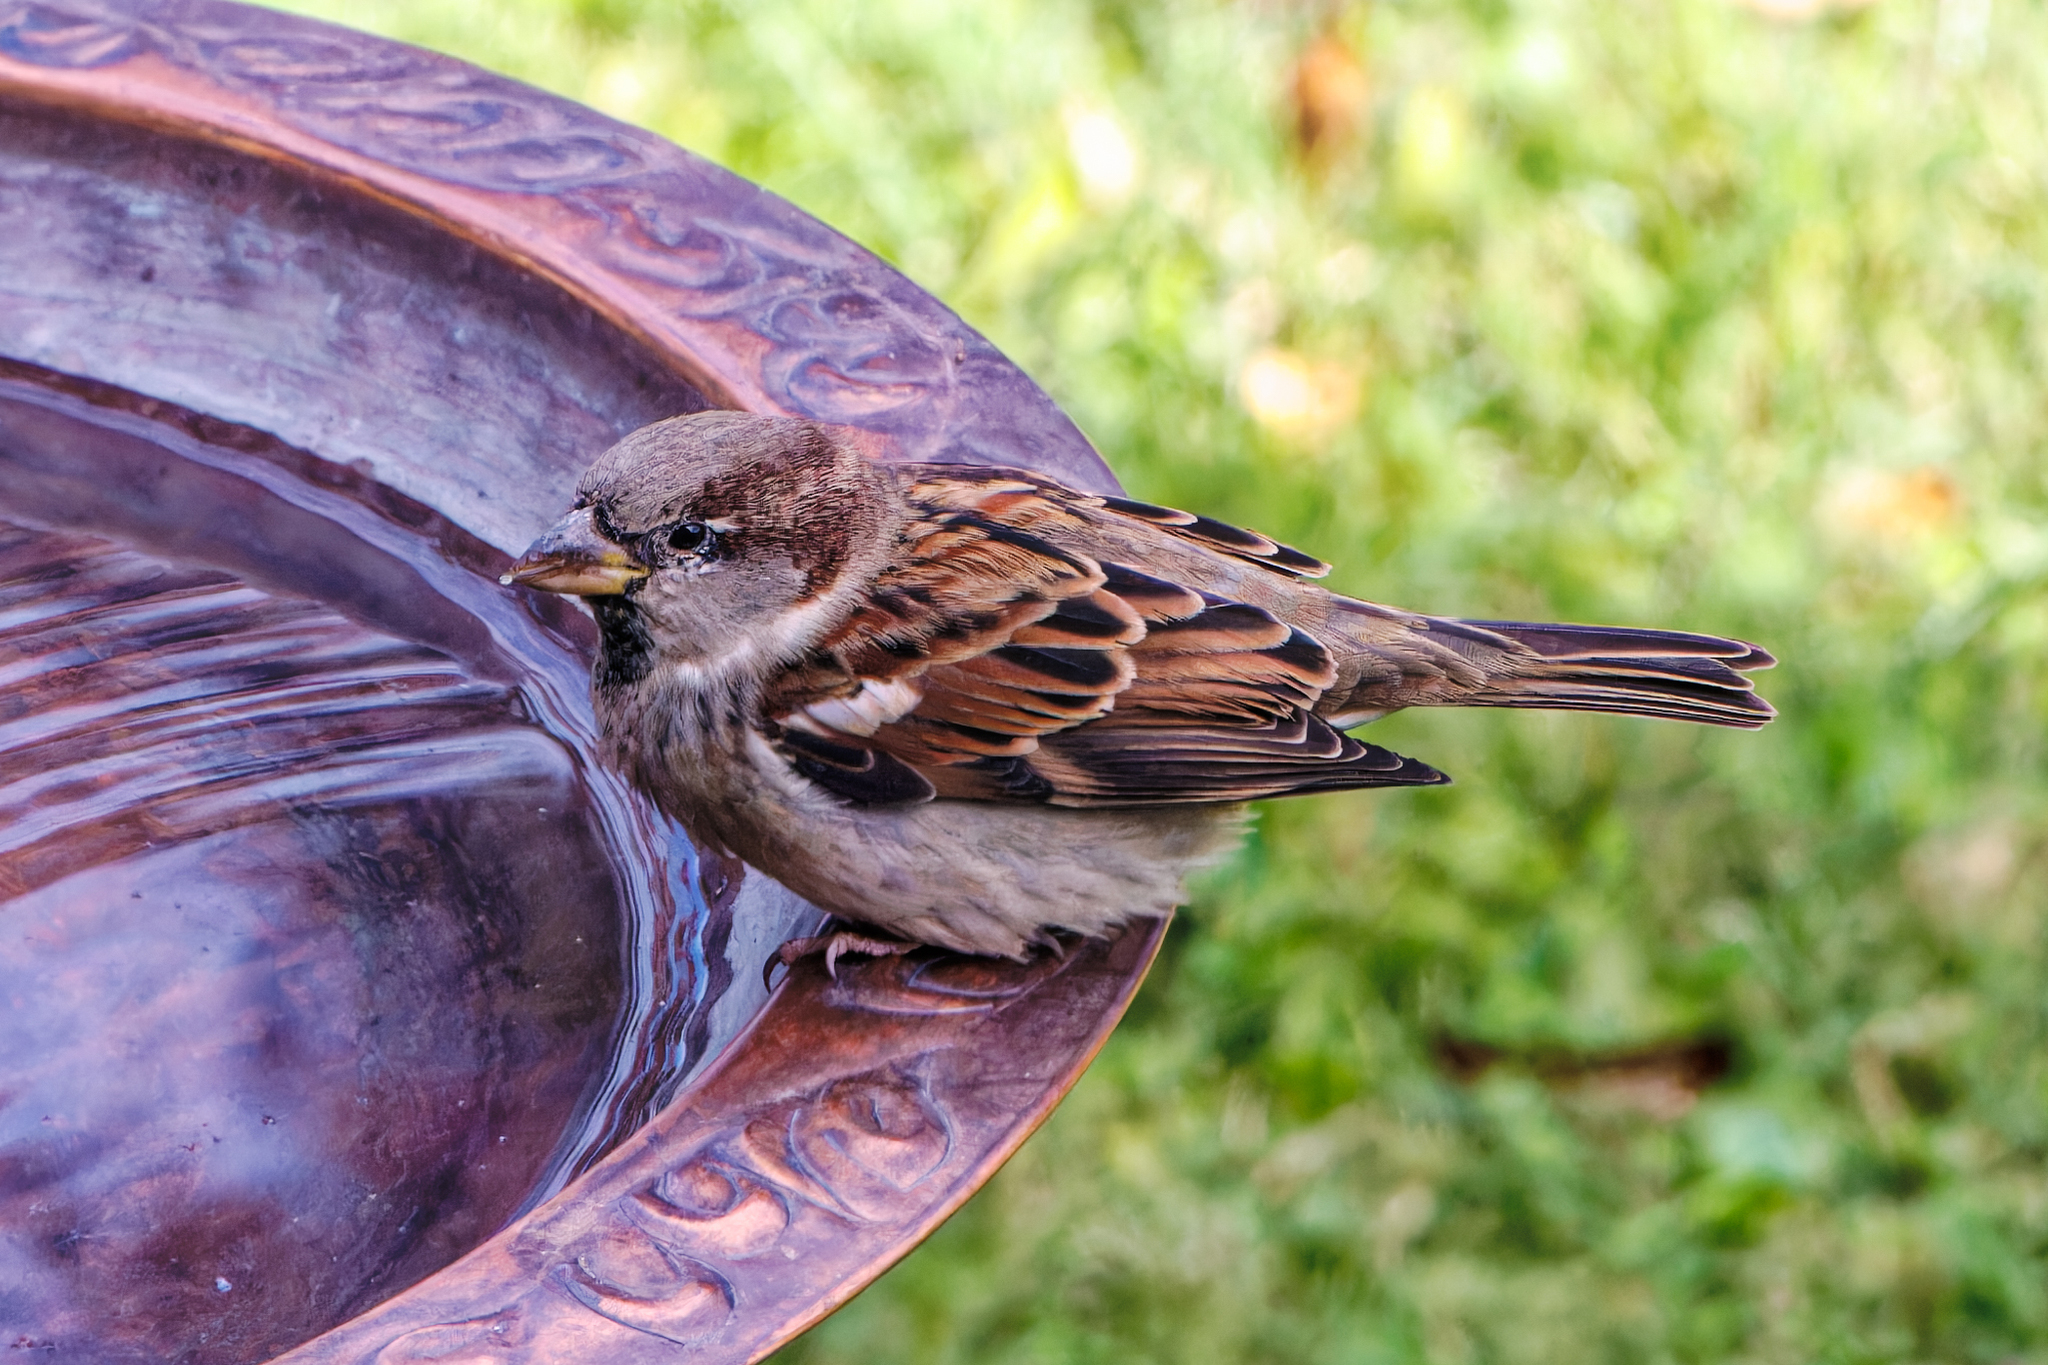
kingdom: Animalia
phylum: Chordata
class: Aves
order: Passeriformes
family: Passeridae
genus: Passer
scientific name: Passer domesticus
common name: House sparrow
